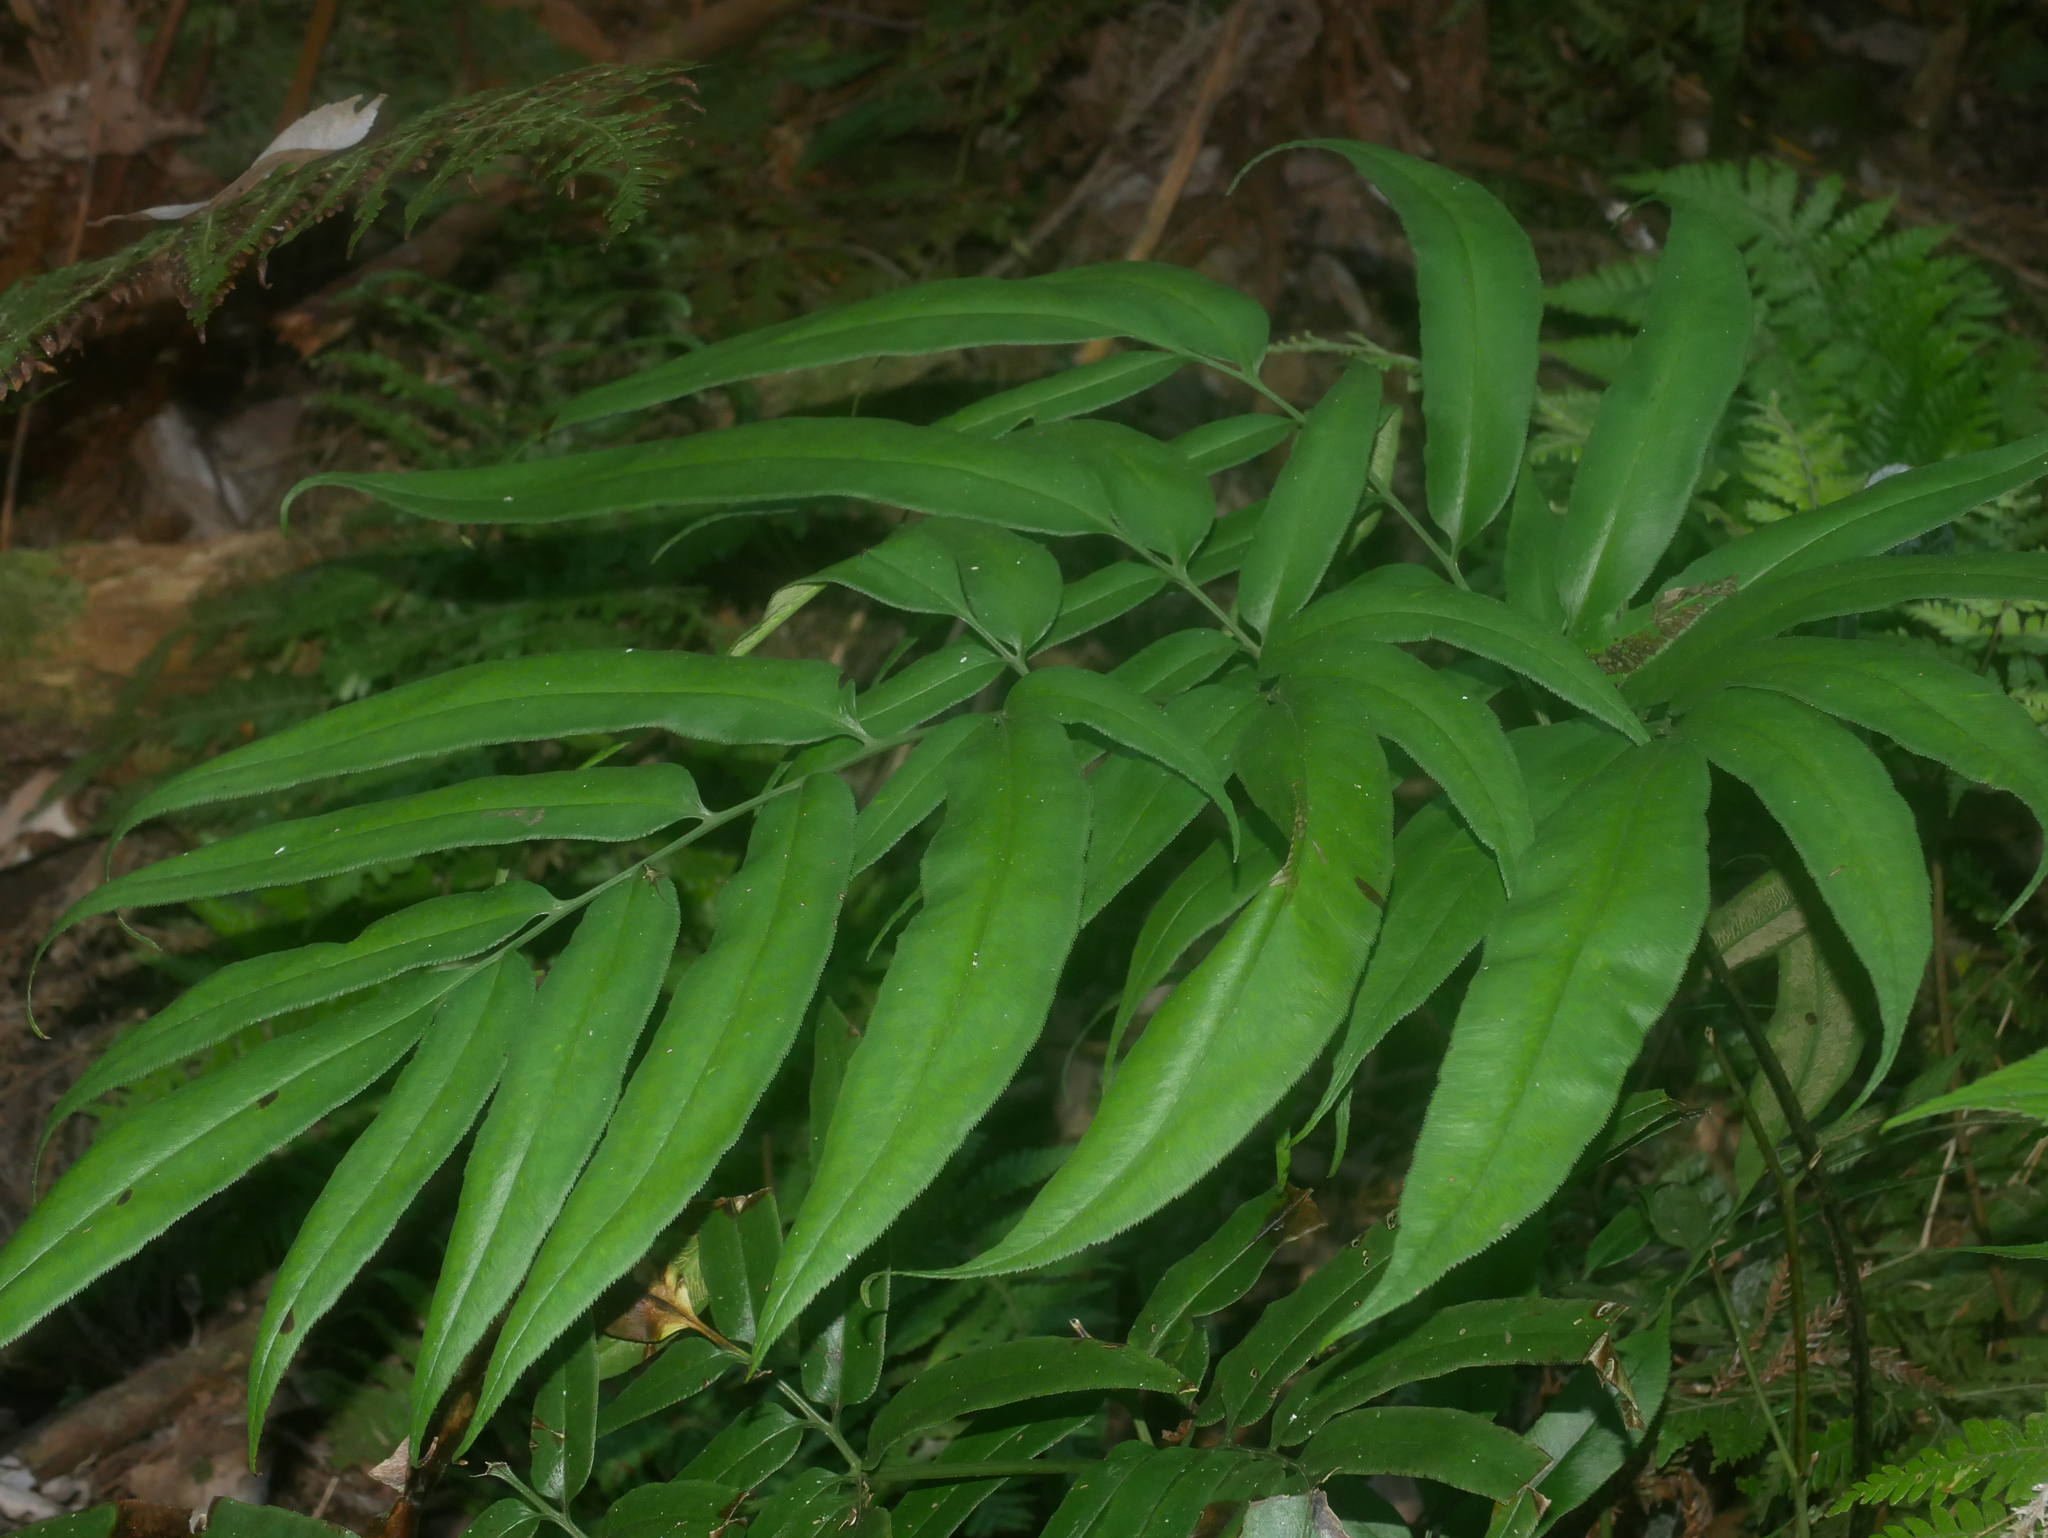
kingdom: Plantae
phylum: Tracheophyta
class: Polypodiopsida
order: Polypodiales
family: Pteridaceae
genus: Coniogramme
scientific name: Coniogramme japonica
